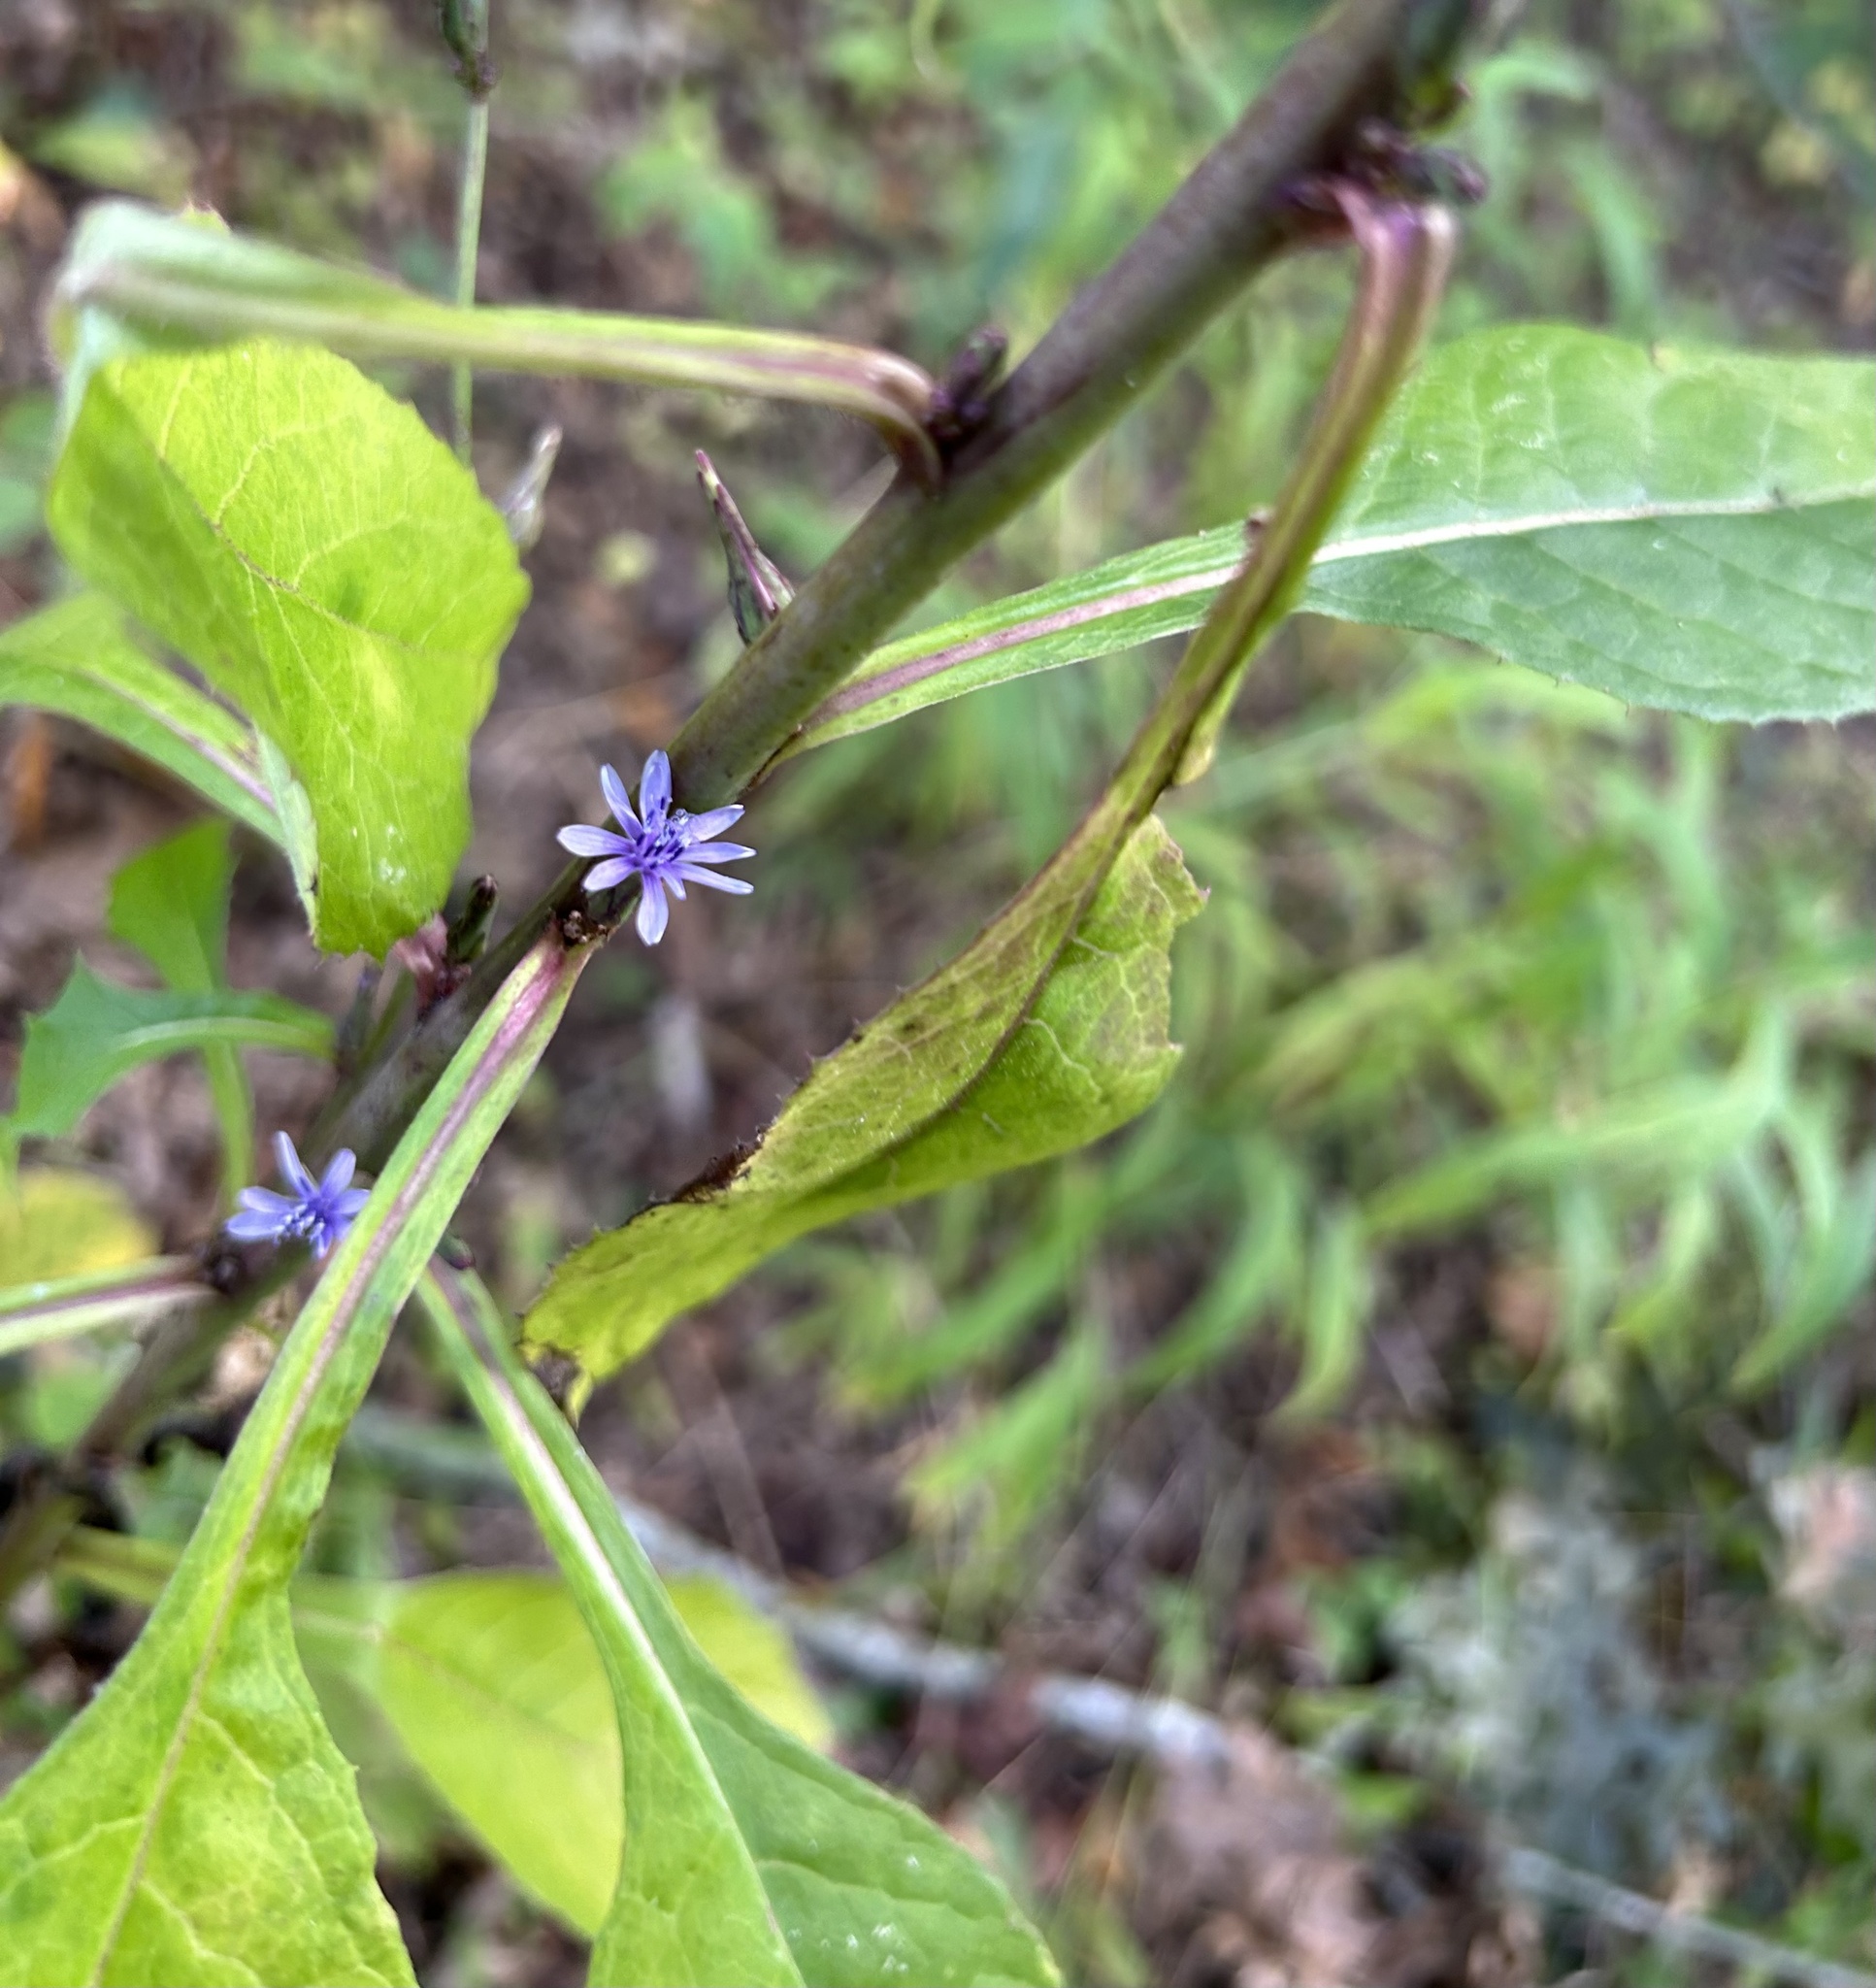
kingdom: Plantae
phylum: Tracheophyta
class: Magnoliopsida
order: Asterales
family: Asteraceae
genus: Lactuca
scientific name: Lactuca floridana
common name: Woodland lettuce
